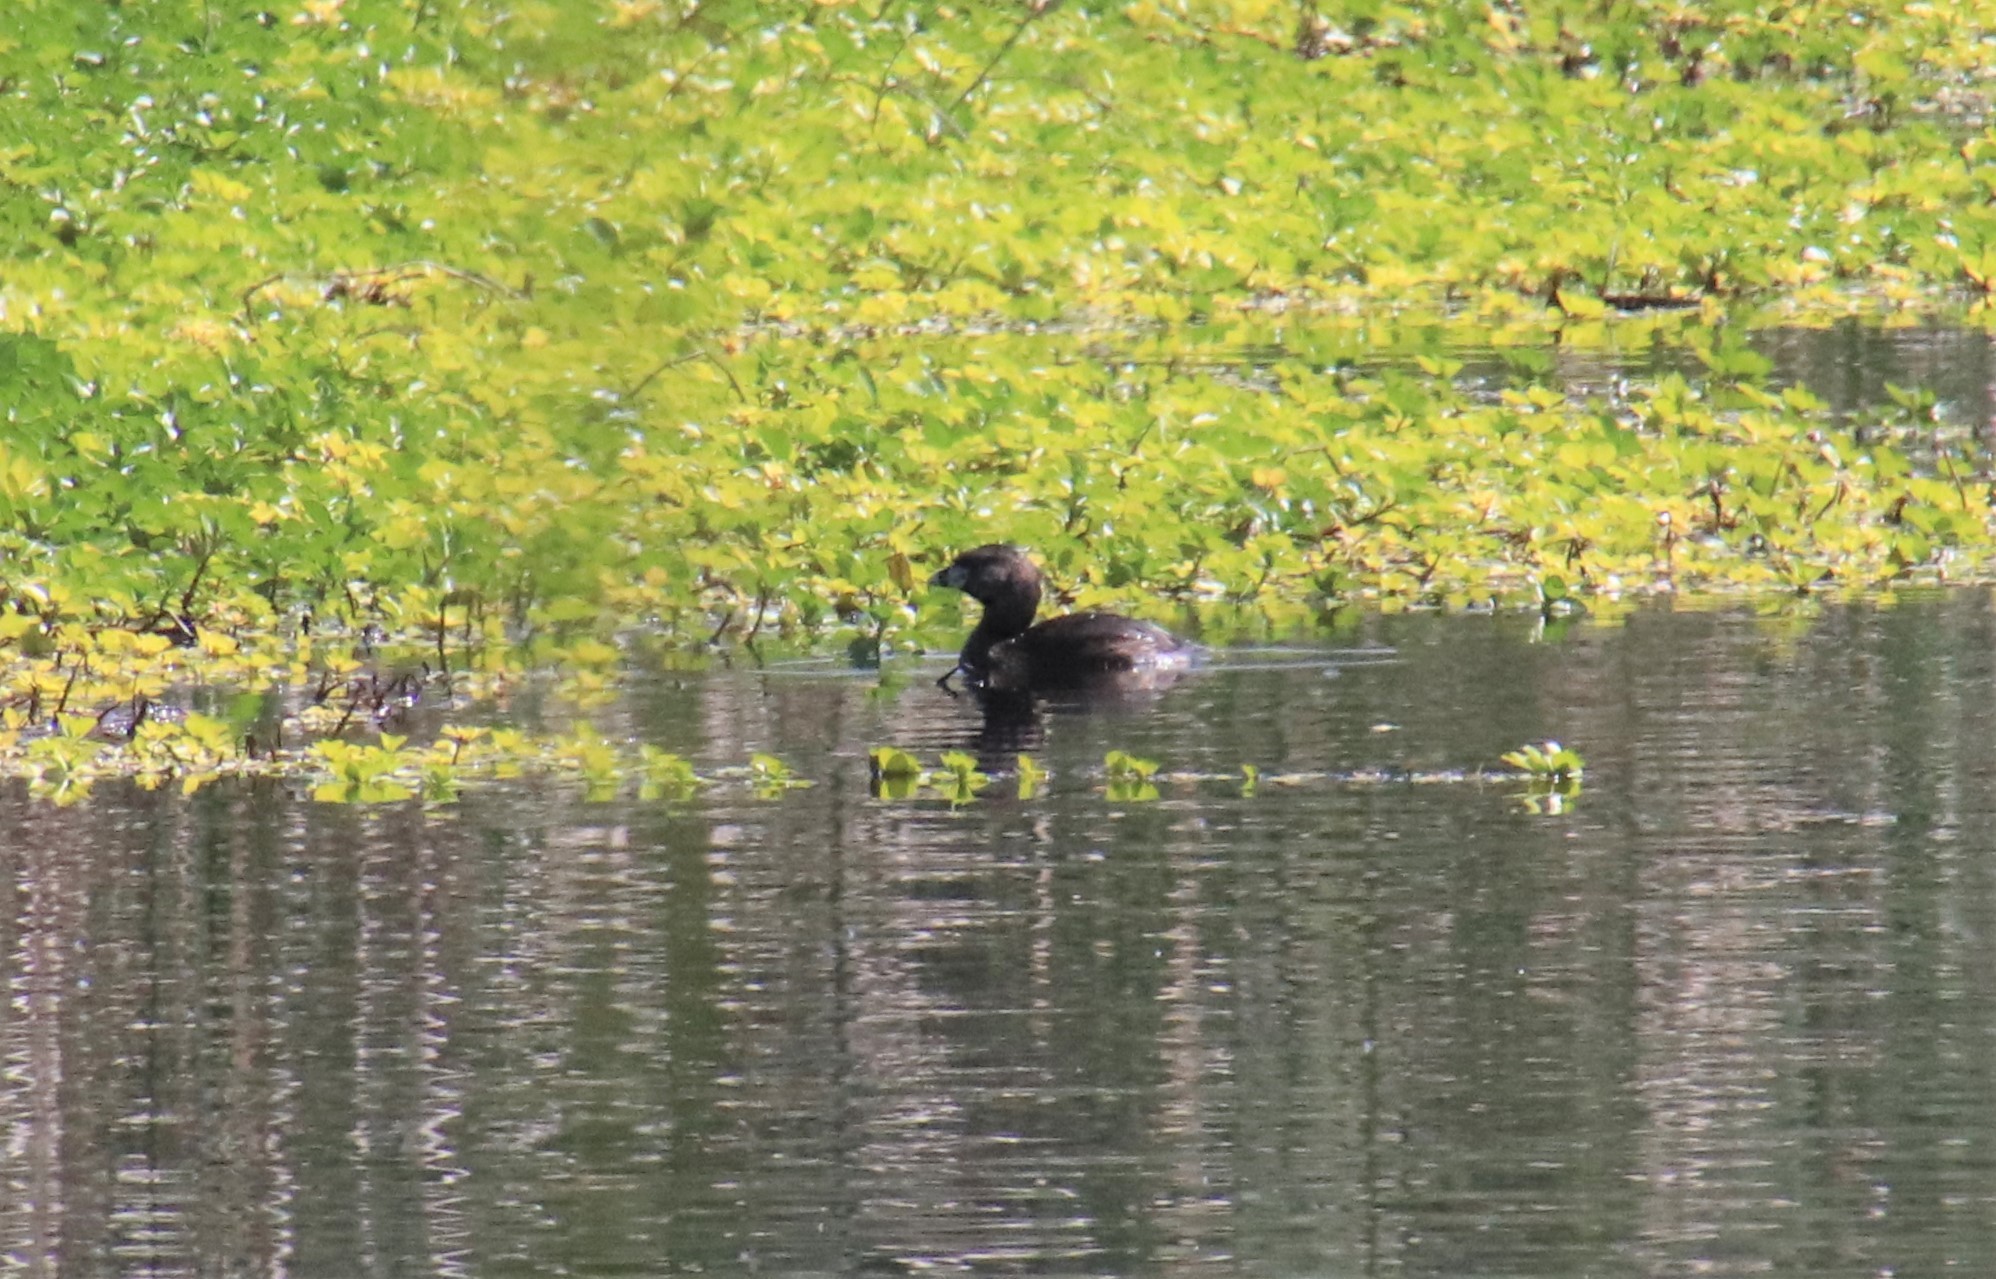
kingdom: Animalia
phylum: Chordata
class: Aves
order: Podicipediformes
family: Podicipedidae
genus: Podilymbus
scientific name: Podilymbus podiceps
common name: Pied-billed grebe
